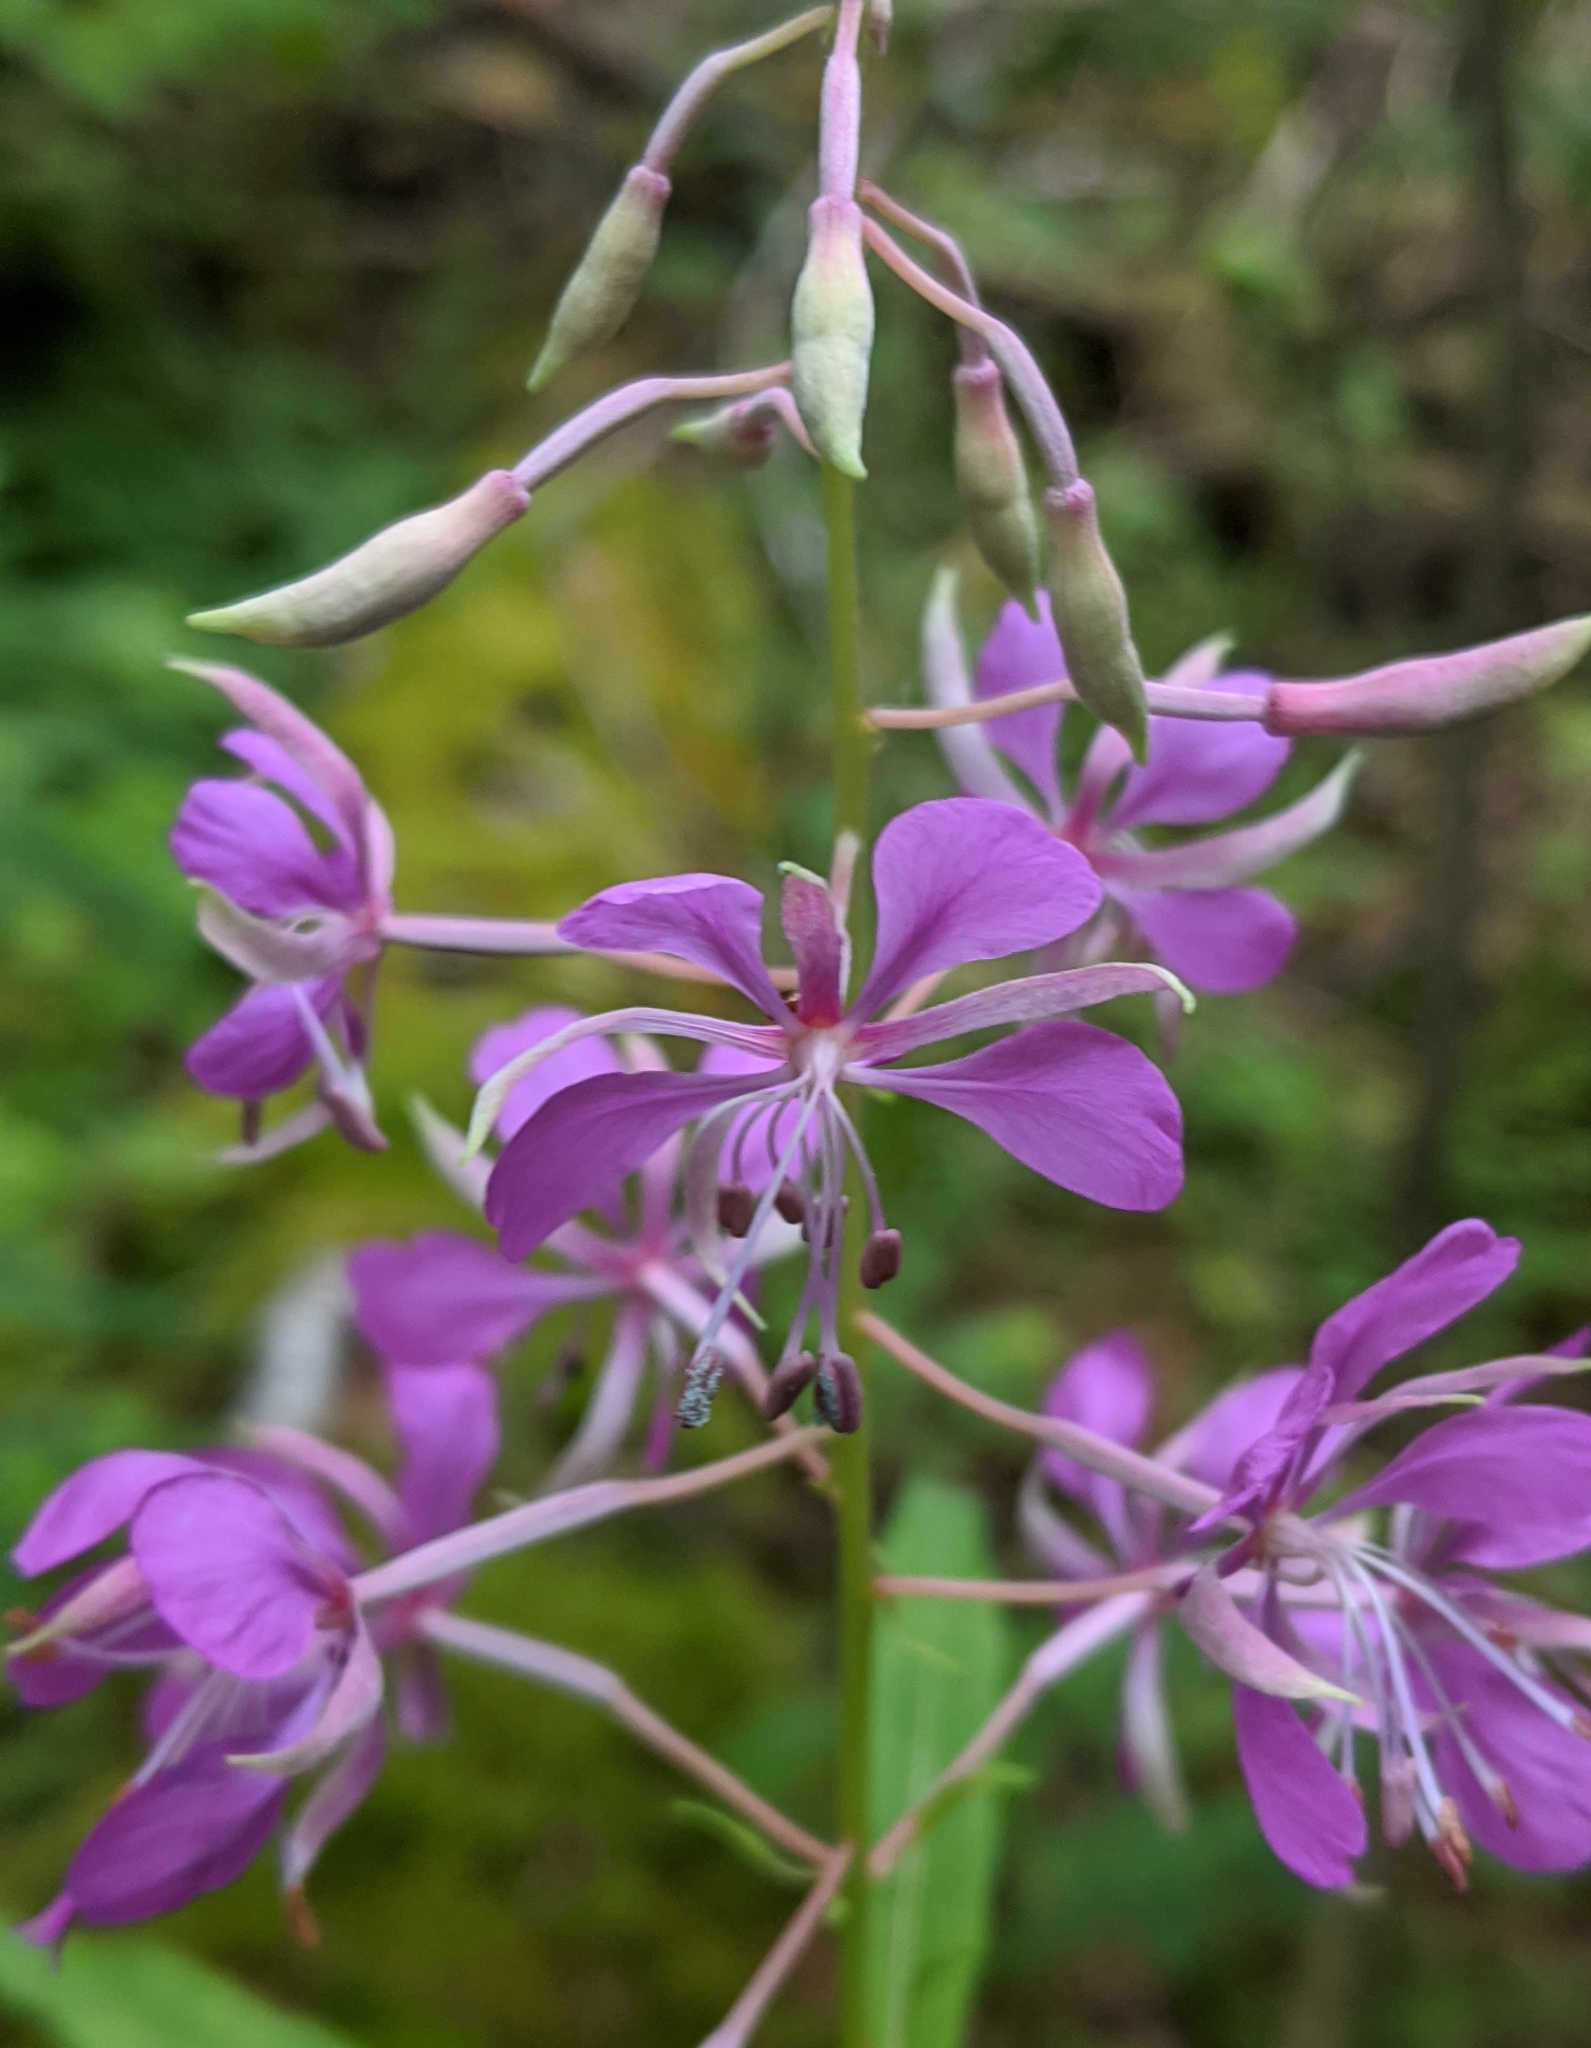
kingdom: Plantae
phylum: Tracheophyta
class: Magnoliopsida
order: Myrtales
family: Onagraceae
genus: Chamaenerion
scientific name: Chamaenerion angustifolium
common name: Fireweed
